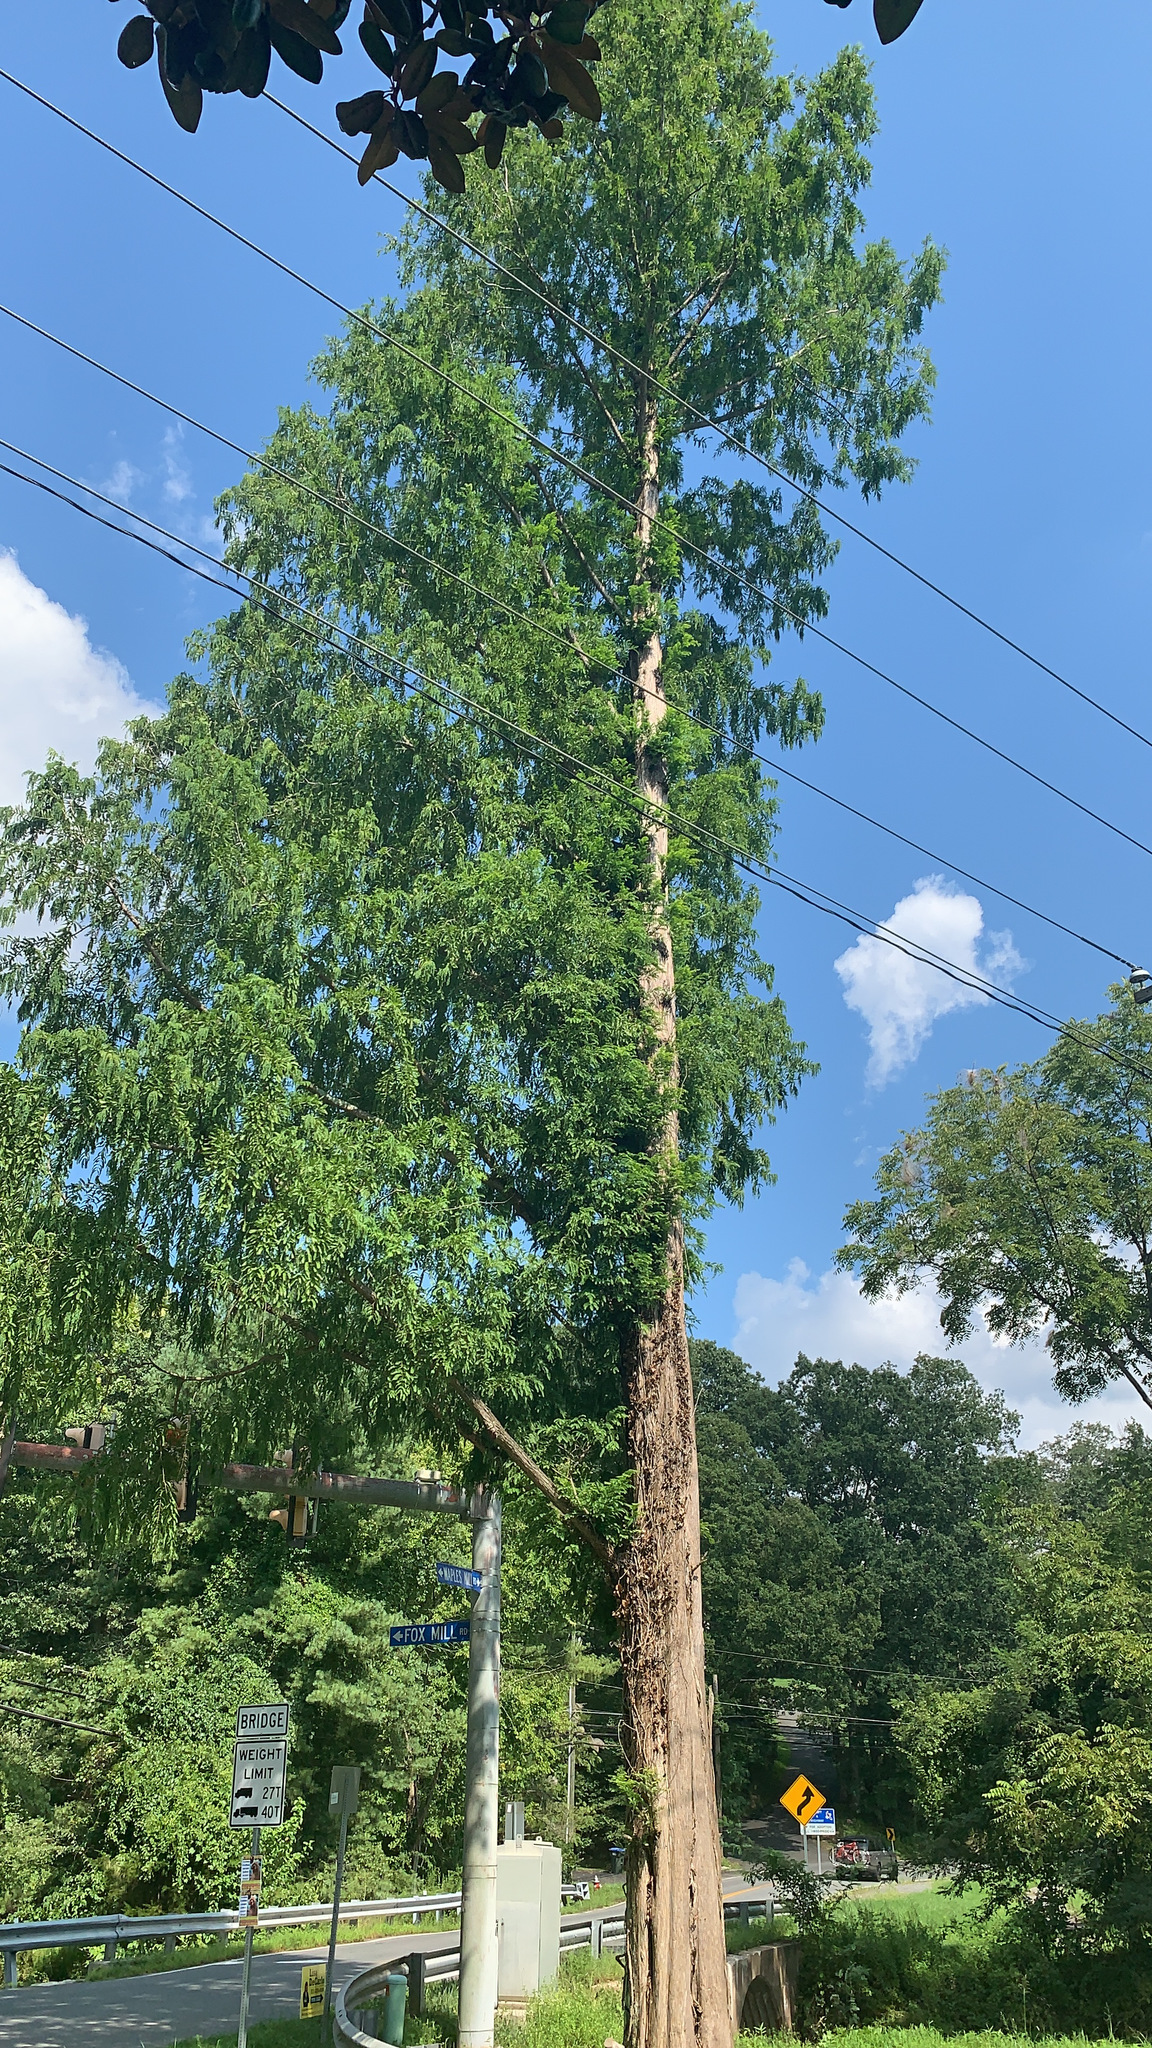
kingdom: Plantae
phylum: Tracheophyta
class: Pinopsida
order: Pinales
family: Cupressaceae
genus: Taxodium
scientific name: Taxodium distichum
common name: Bald cypress
